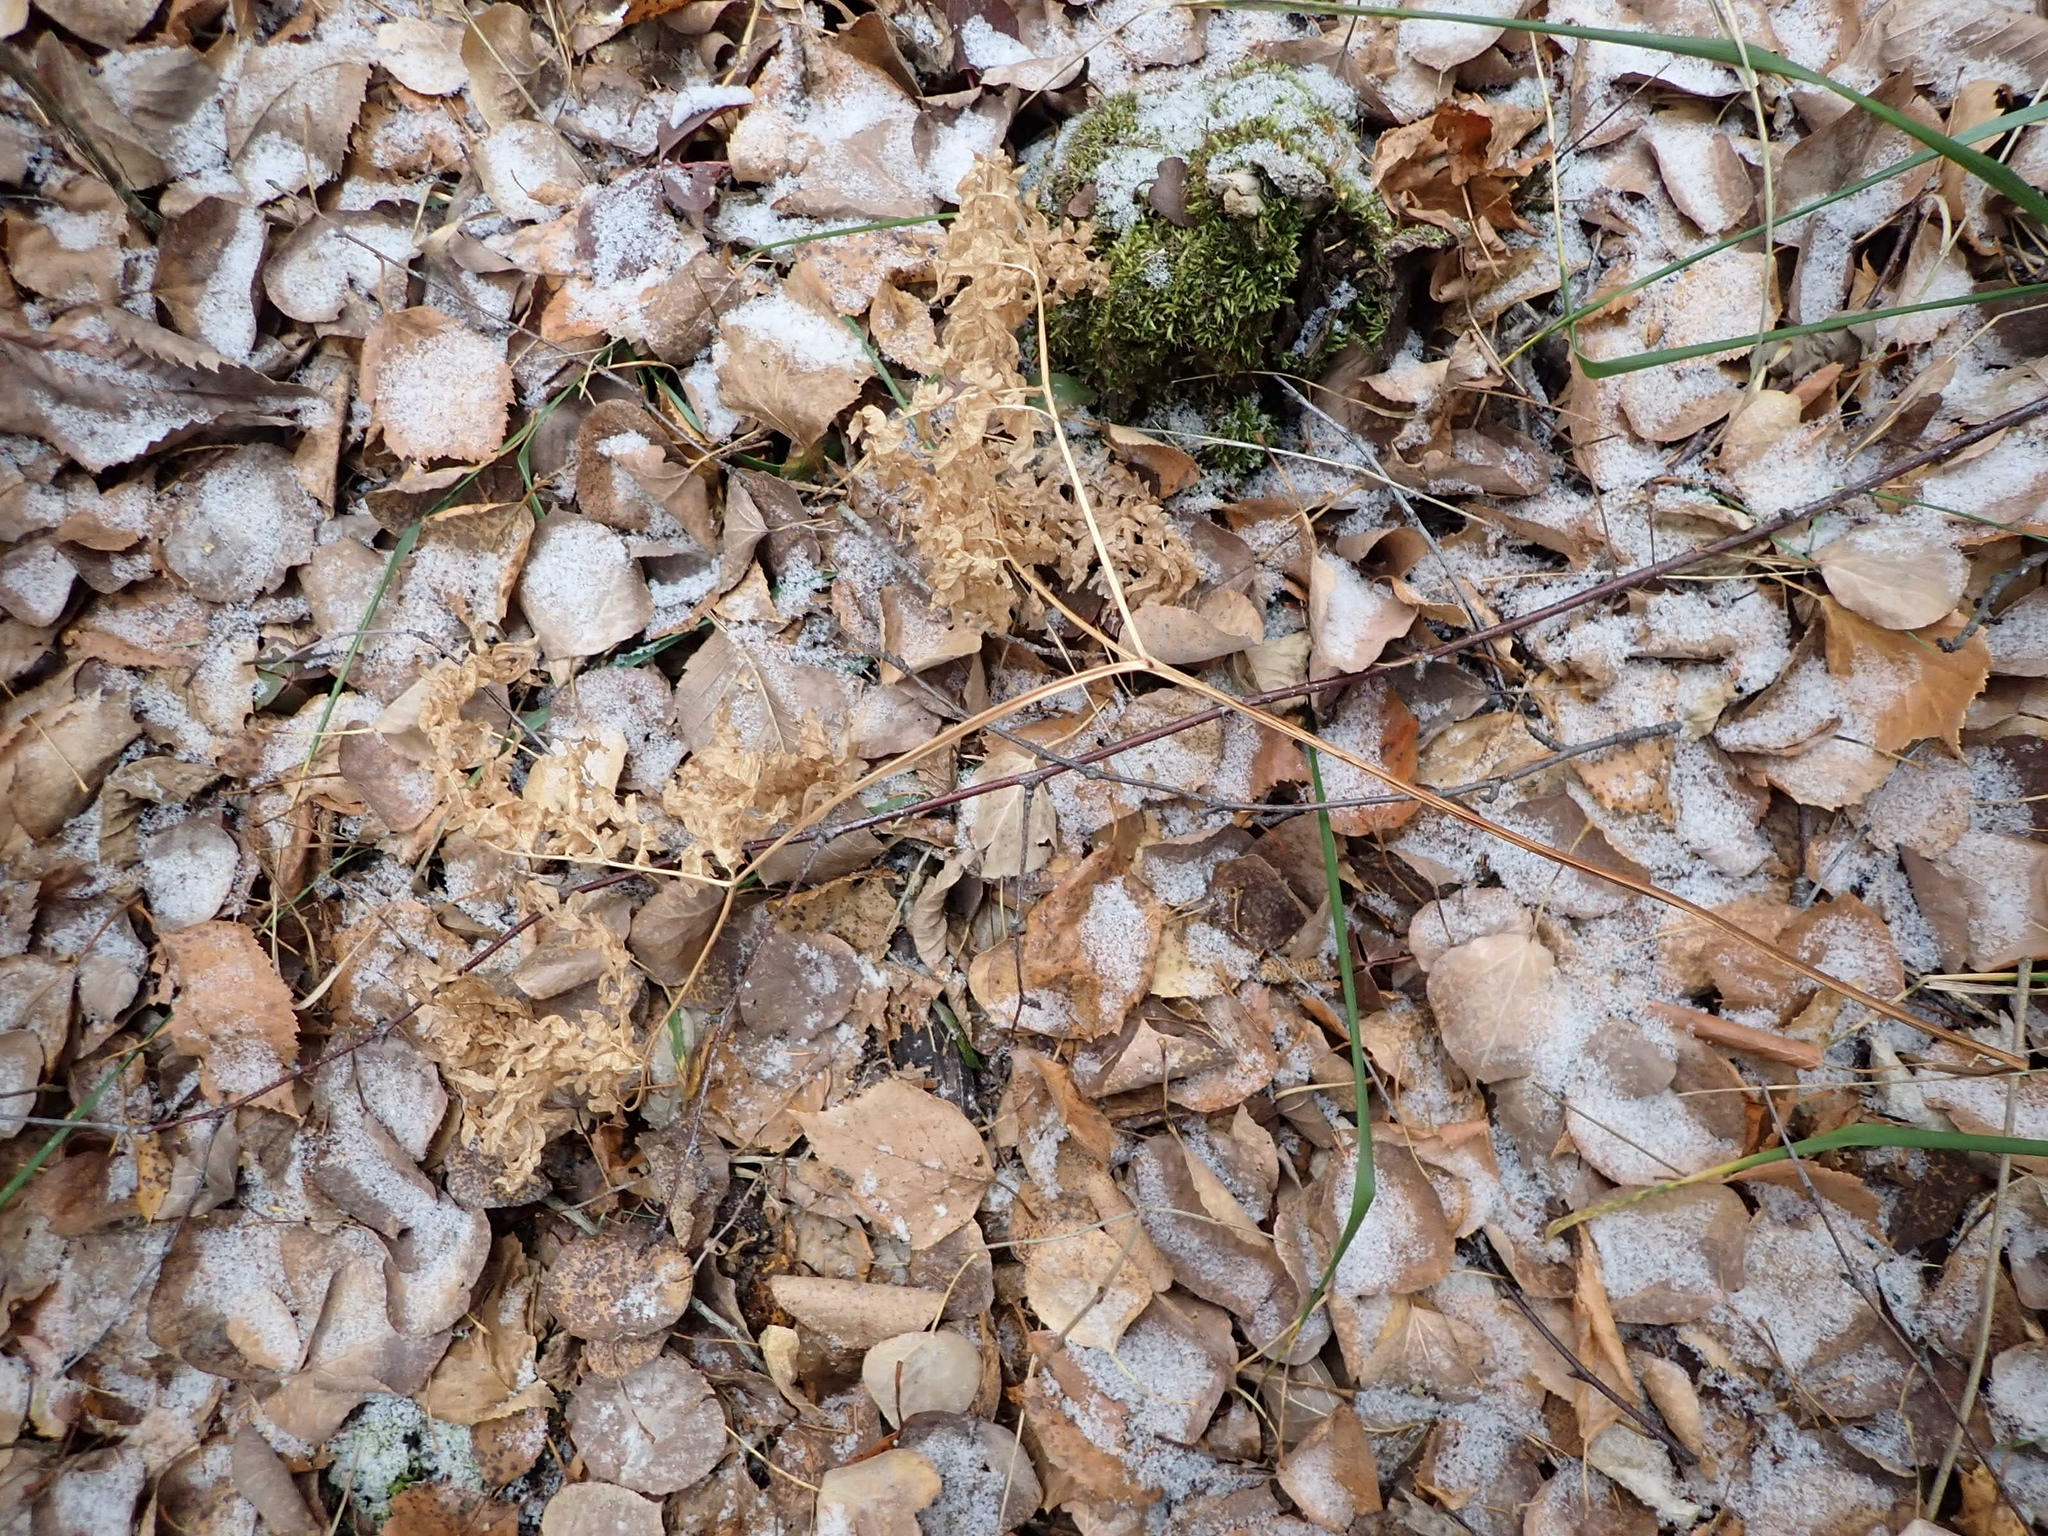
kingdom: Plantae
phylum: Tracheophyta
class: Polypodiopsida
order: Polypodiales
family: Dennstaedtiaceae
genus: Pteridium
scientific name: Pteridium aquilinum
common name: Bracken
